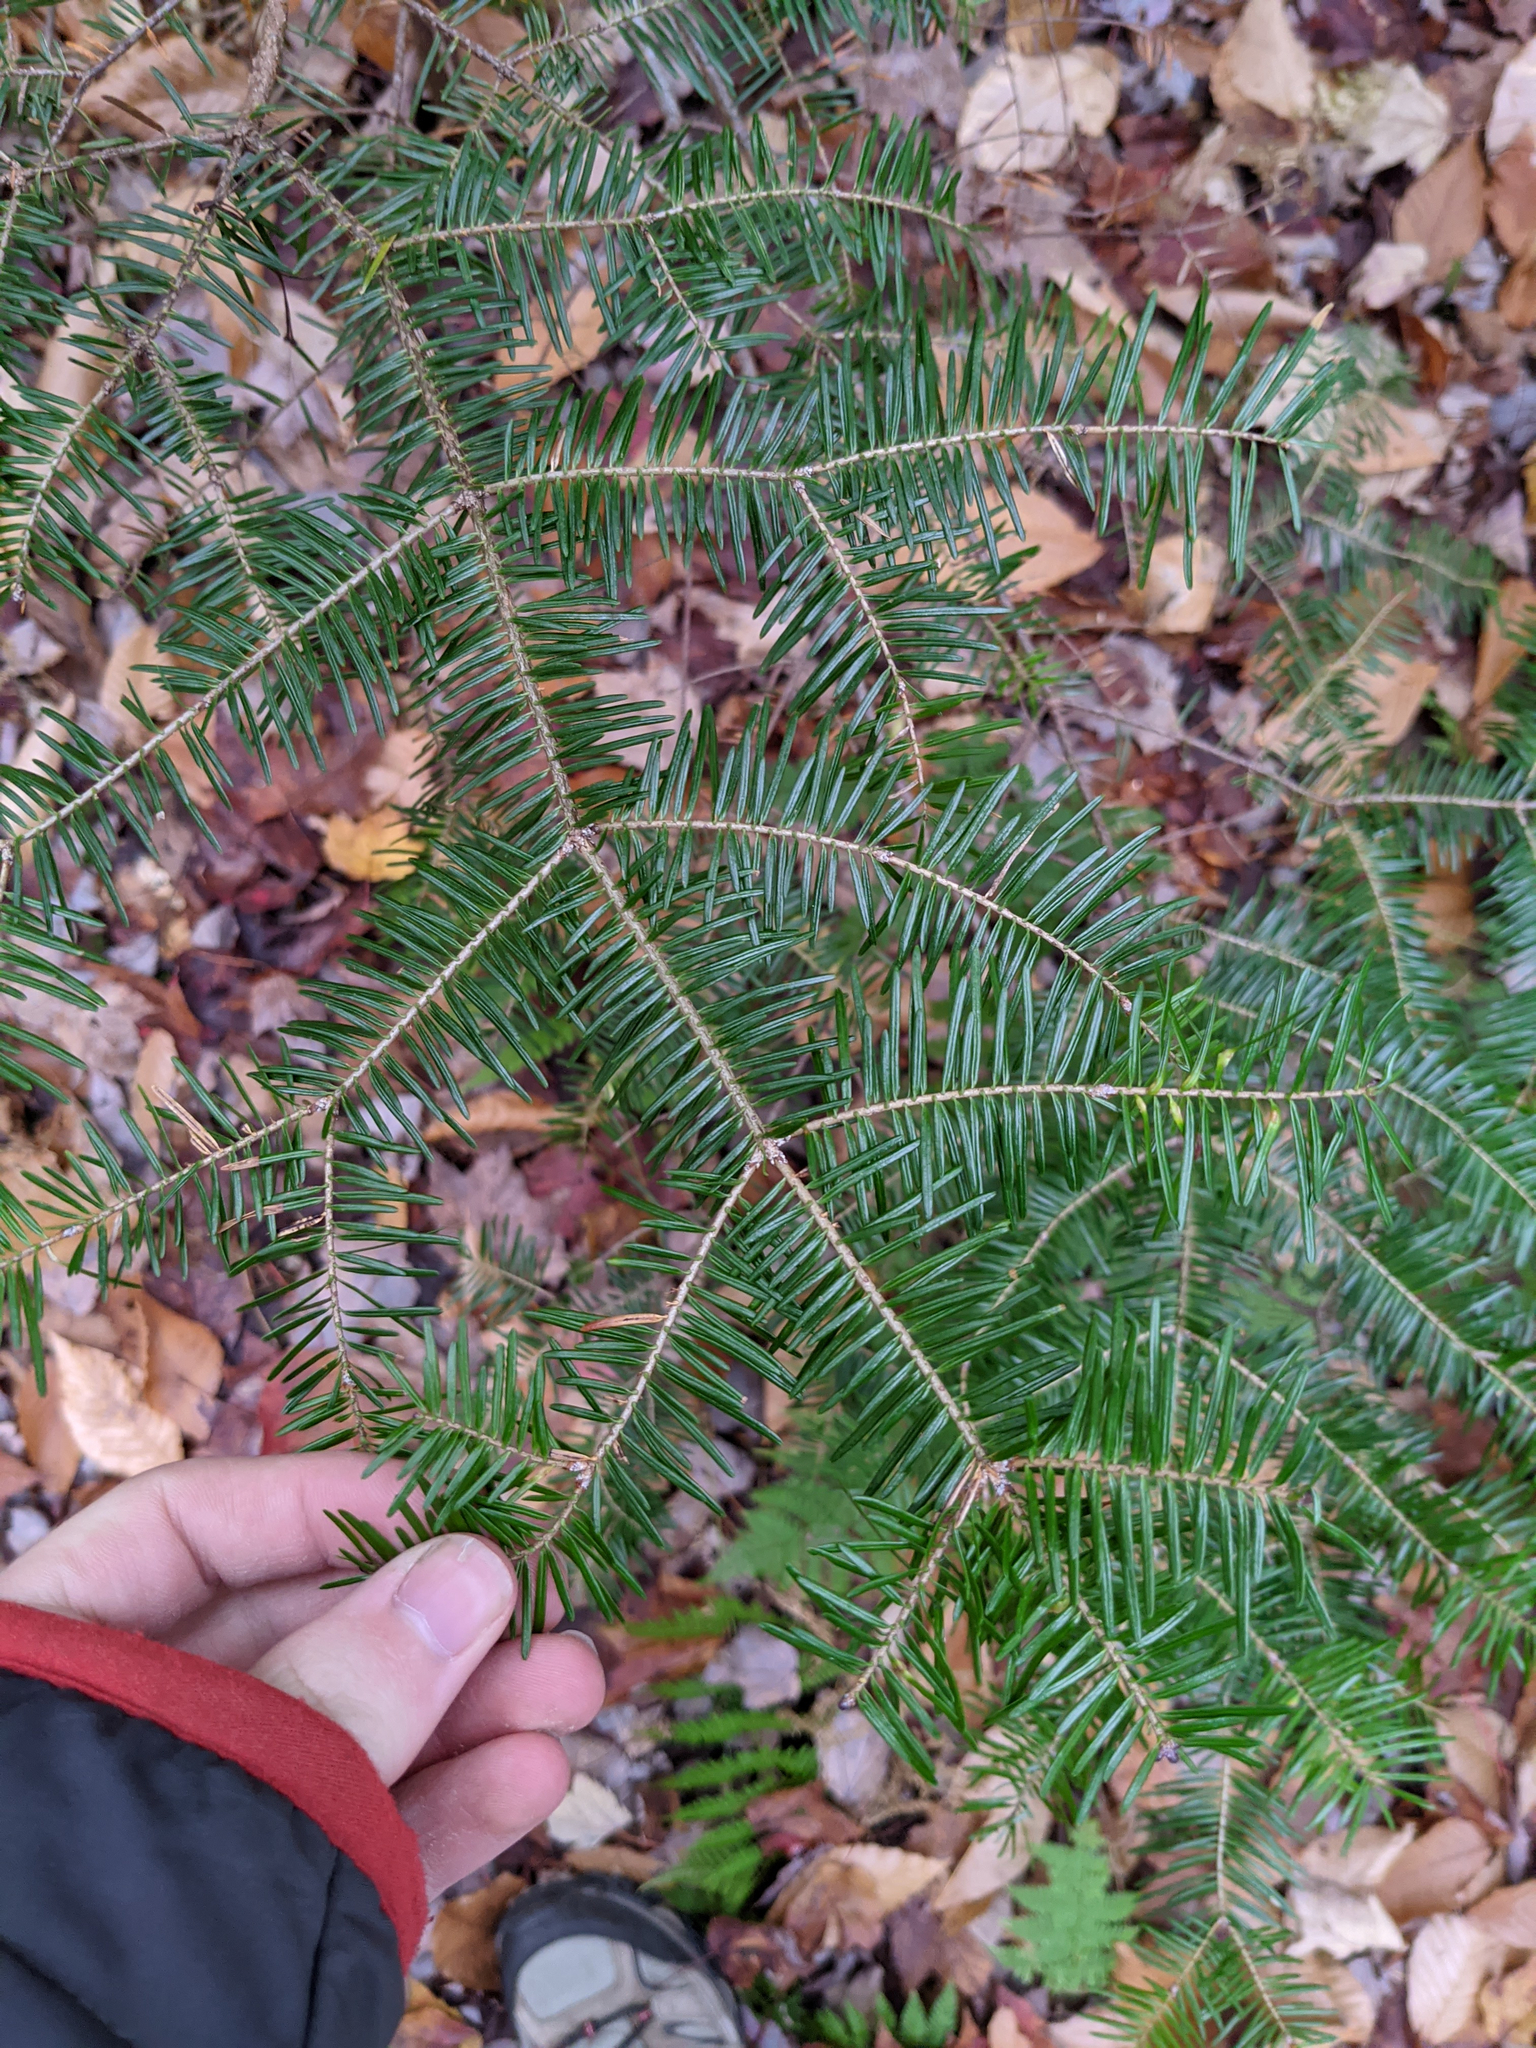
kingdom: Plantae
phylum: Tracheophyta
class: Pinopsida
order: Pinales
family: Pinaceae
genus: Abies
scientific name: Abies balsamea
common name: Balsam fir
